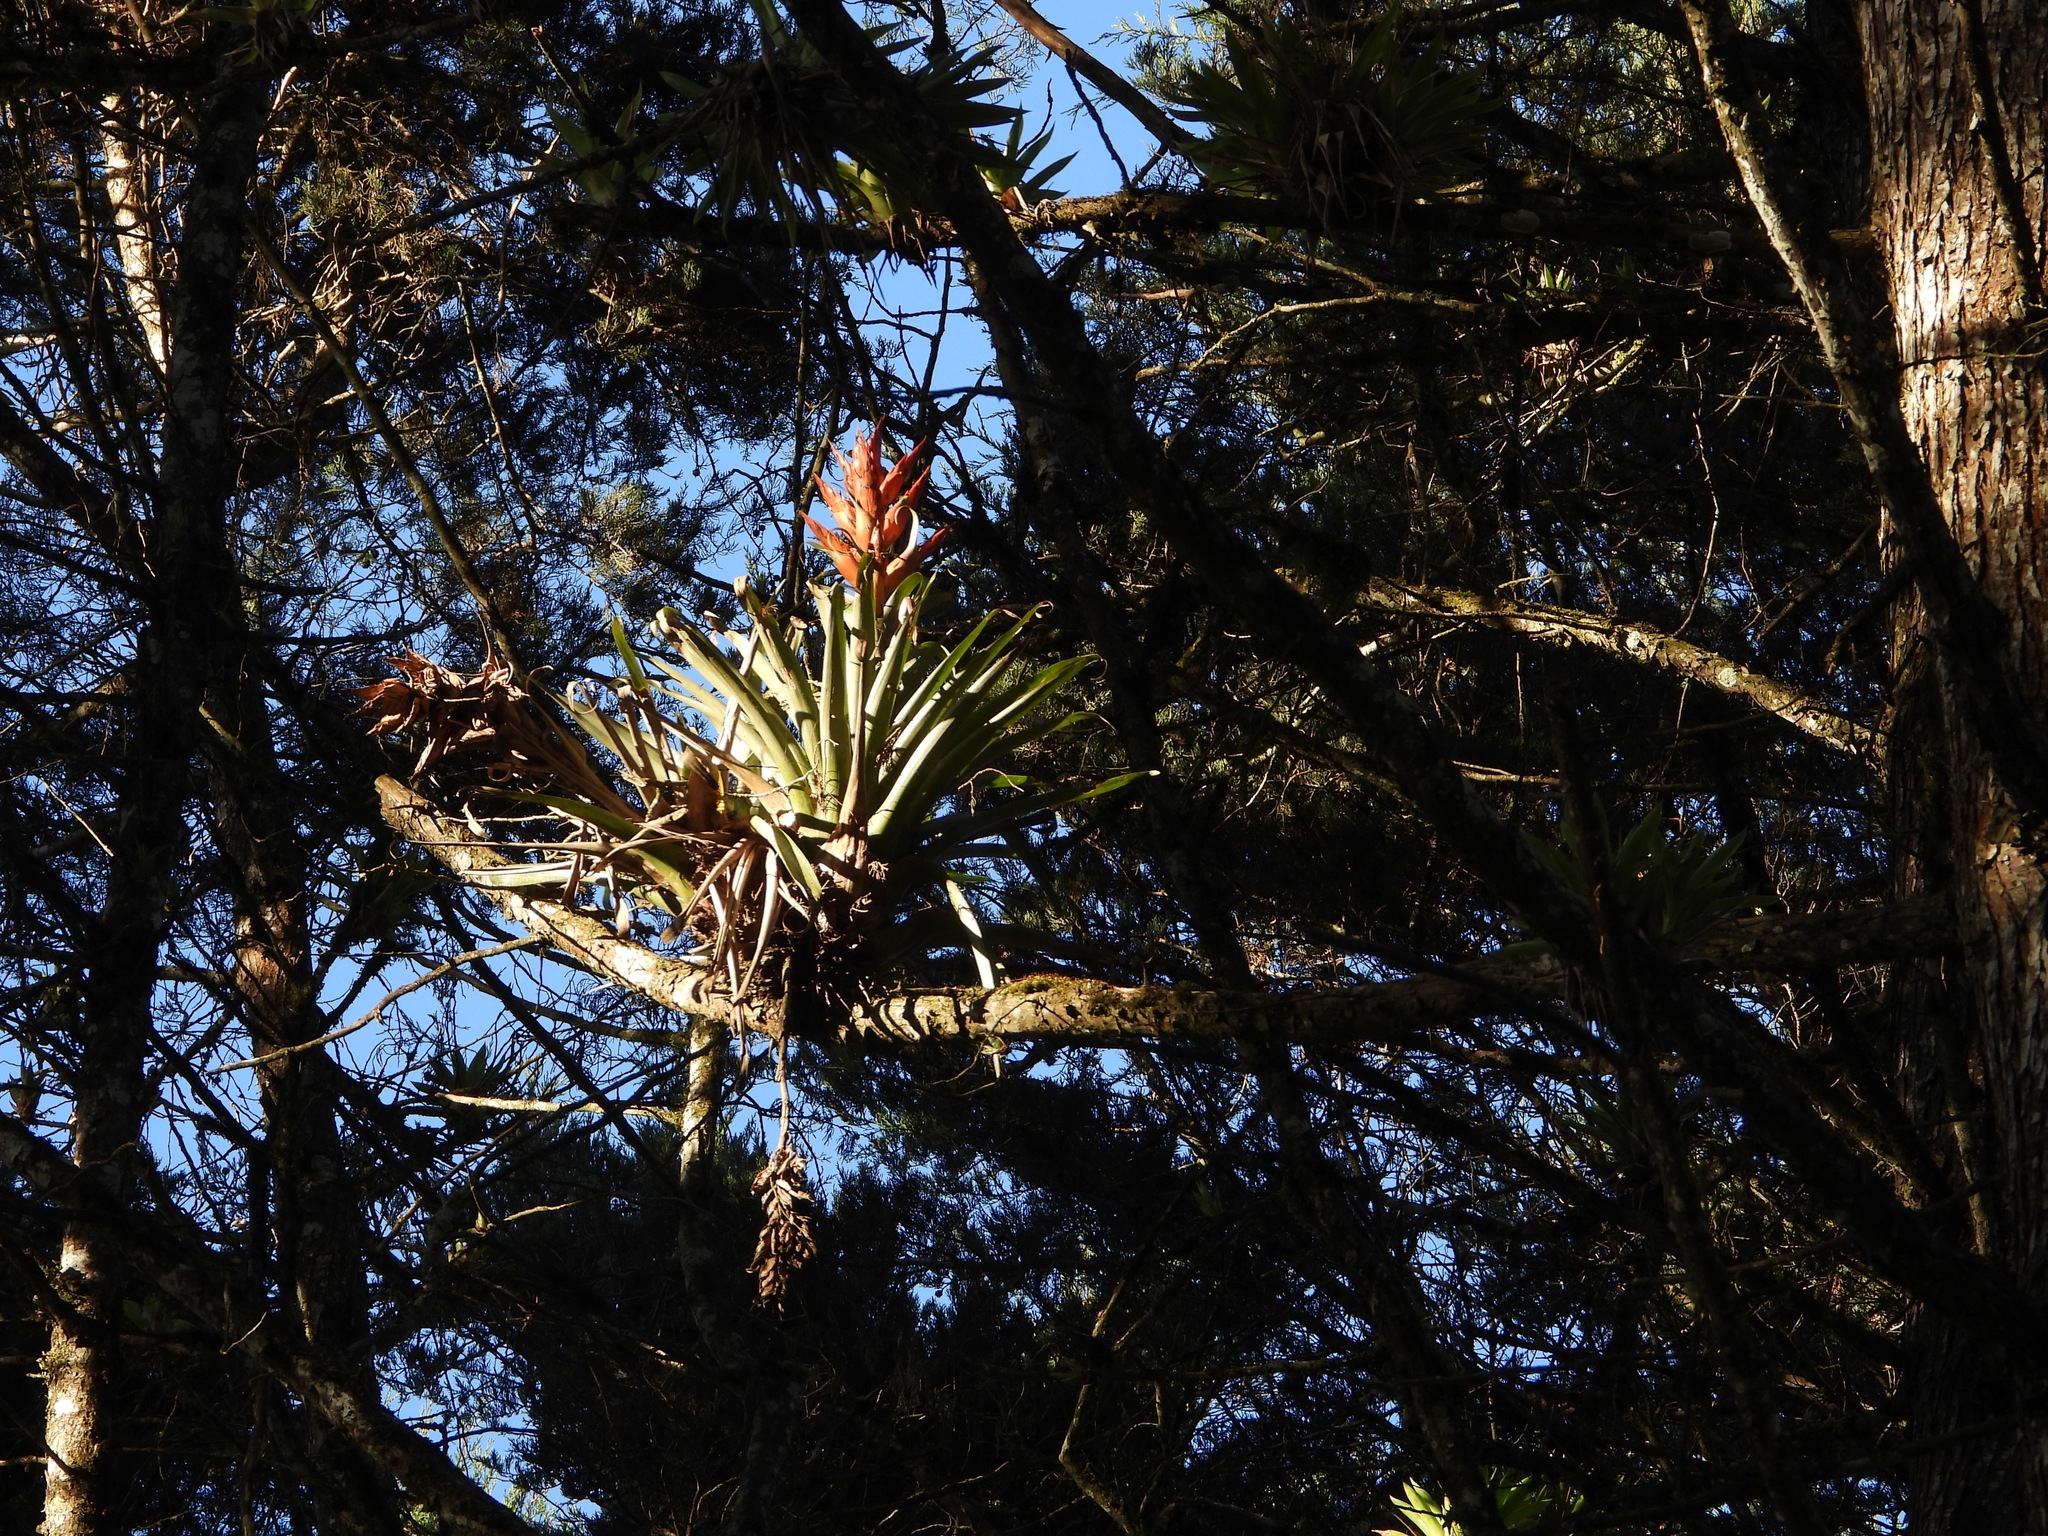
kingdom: Plantae
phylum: Tracheophyta
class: Liliopsida
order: Poales
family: Bromeliaceae
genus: Tillandsia
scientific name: Tillandsia ponderosa
